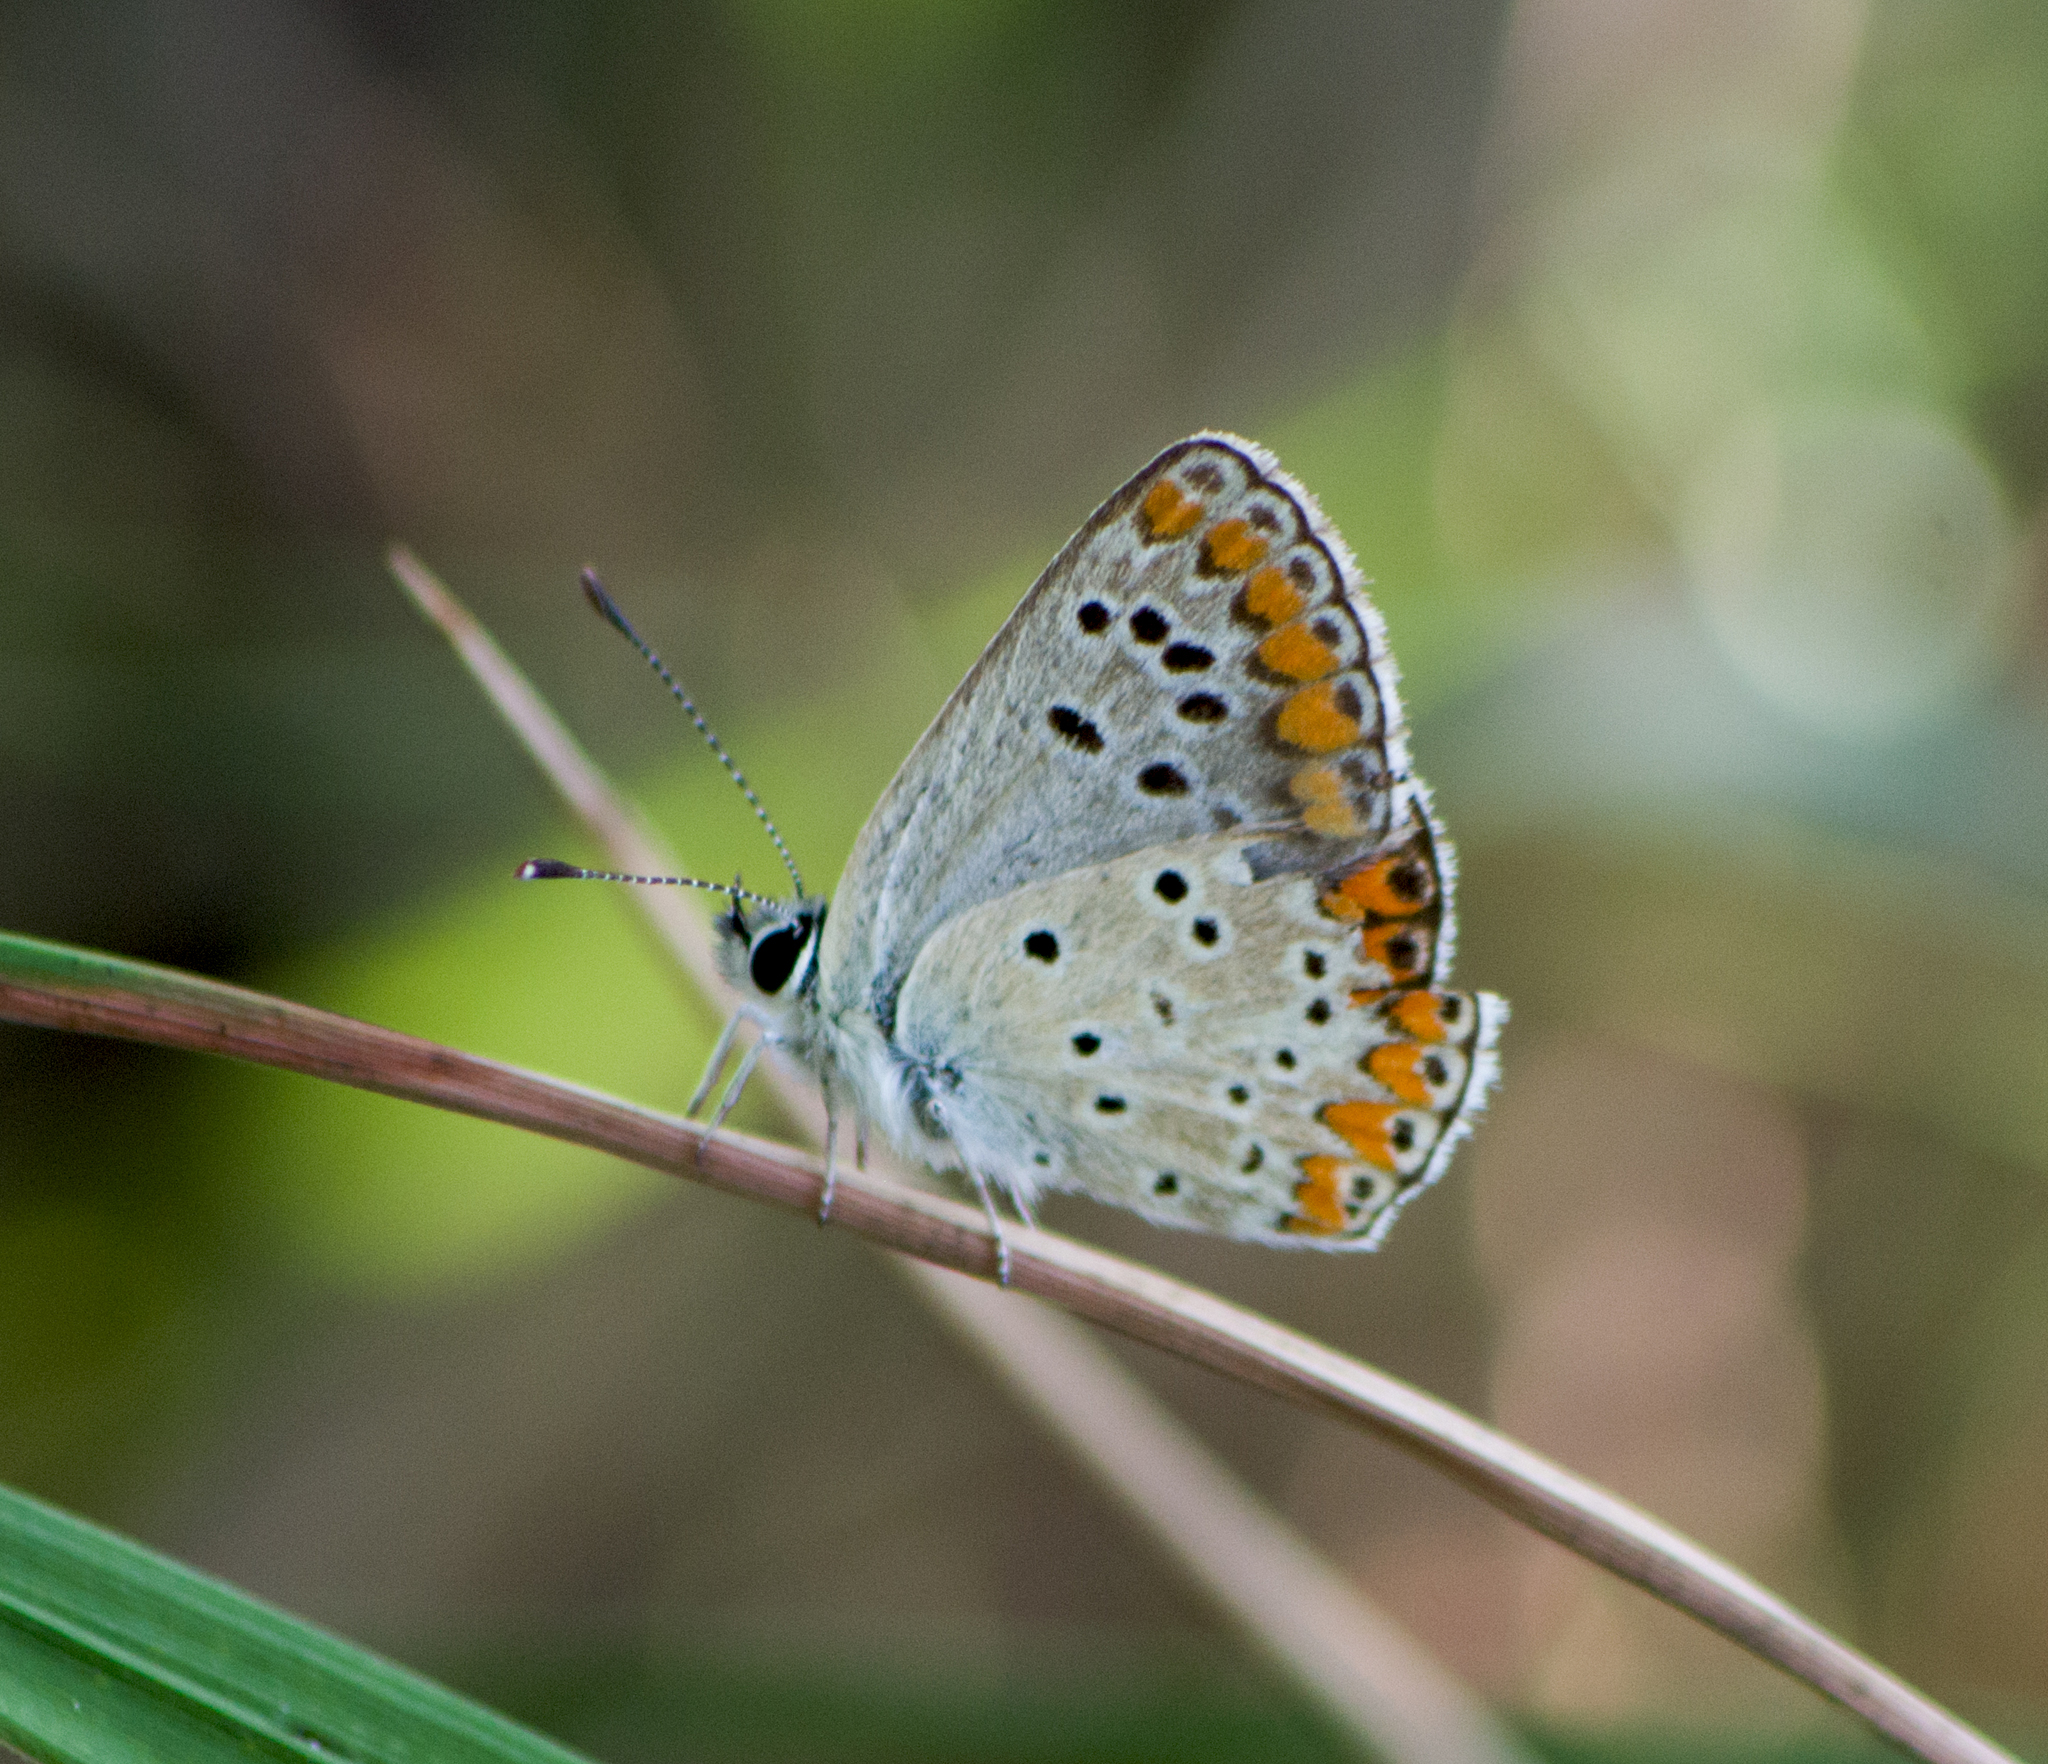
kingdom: Animalia
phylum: Arthropoda
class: Insecta
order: Lepidoptera
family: Lycaenidae
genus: Aricia
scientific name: Aricia agestis
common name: Brown argus
